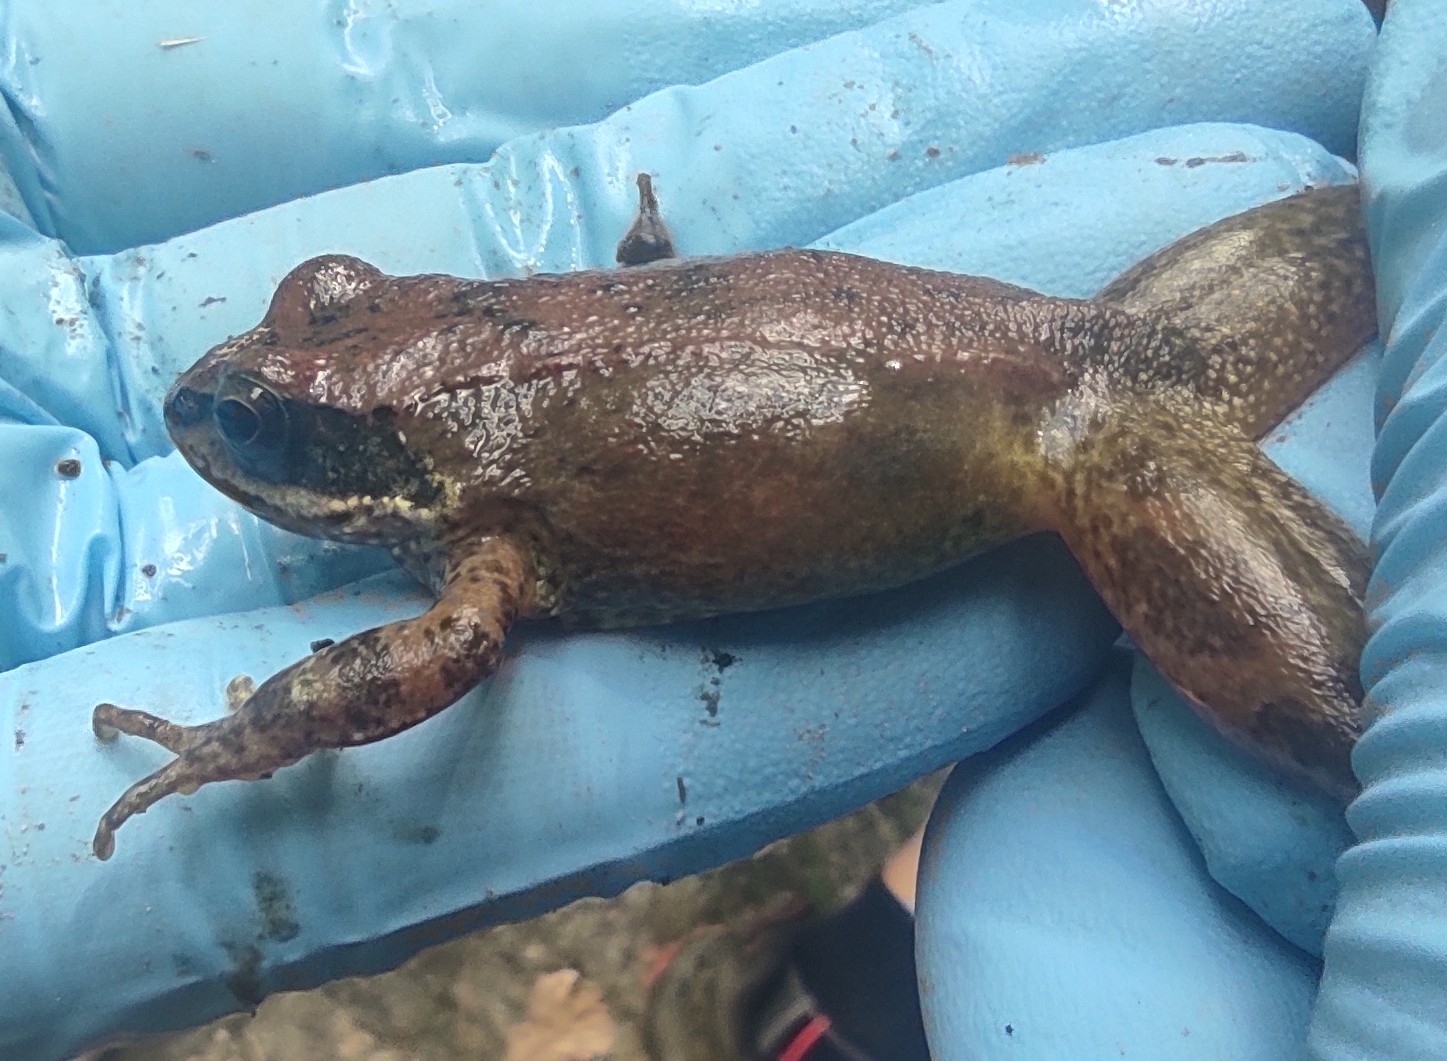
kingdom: Animalia
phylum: Chordata
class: Amphibia
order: Anura
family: Ranidae
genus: Rana
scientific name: Rana pyrenaica
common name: Pyrenean frog
